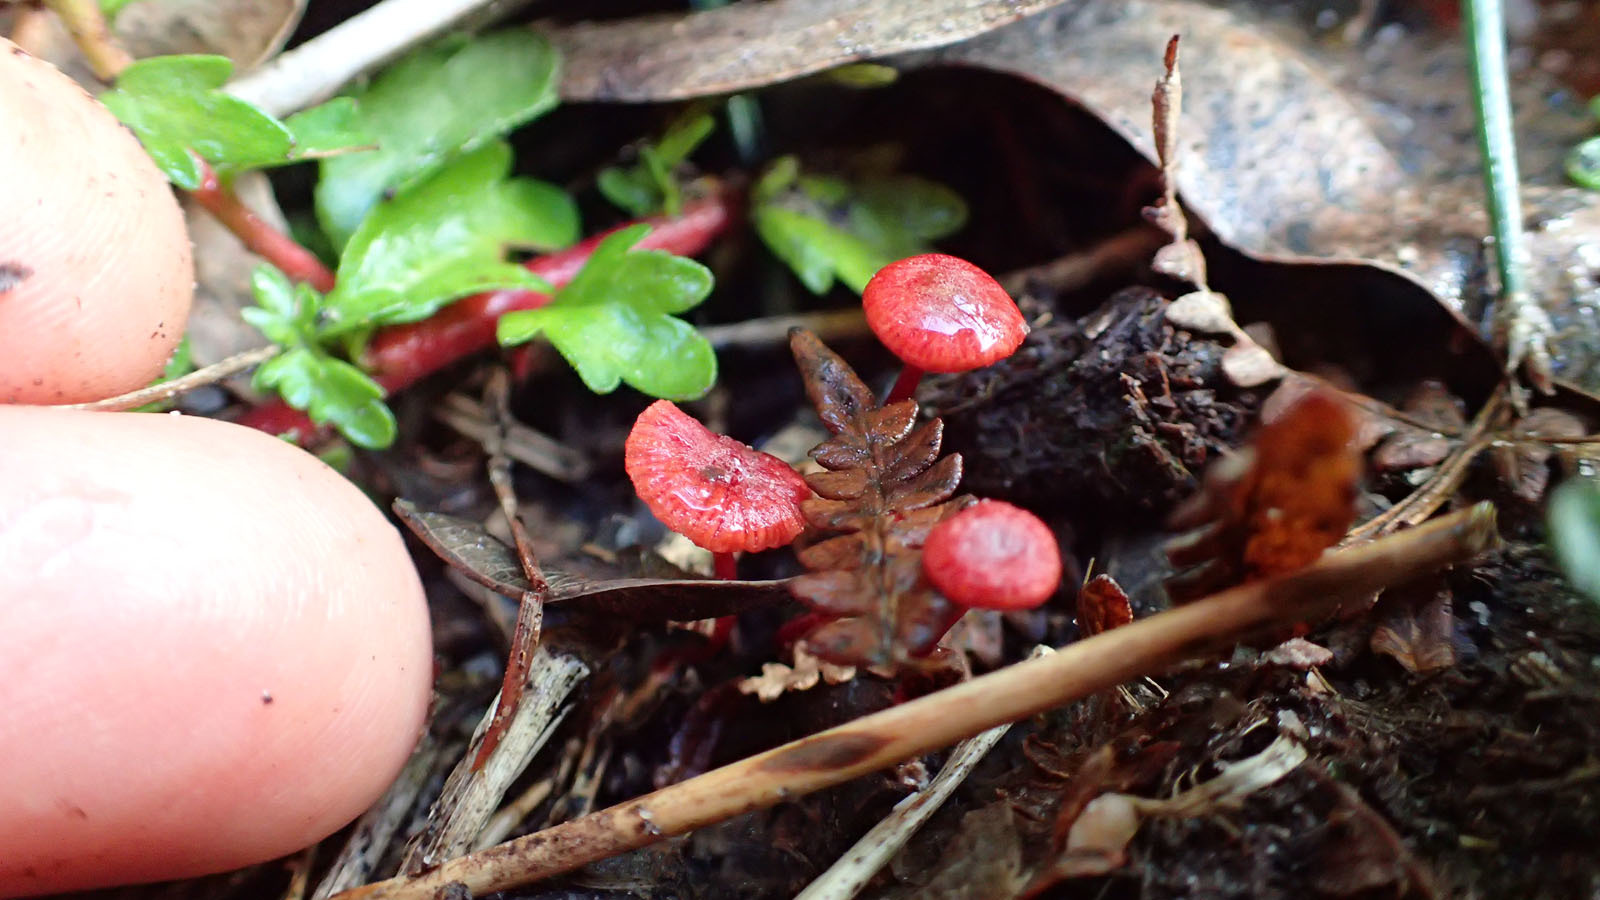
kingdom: Fungi
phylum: Basidiomycota
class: Agaricomycetes
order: Agaricales
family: Mycenaceae
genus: Cruentomycena
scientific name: Cruentomycena viscidocruenta
